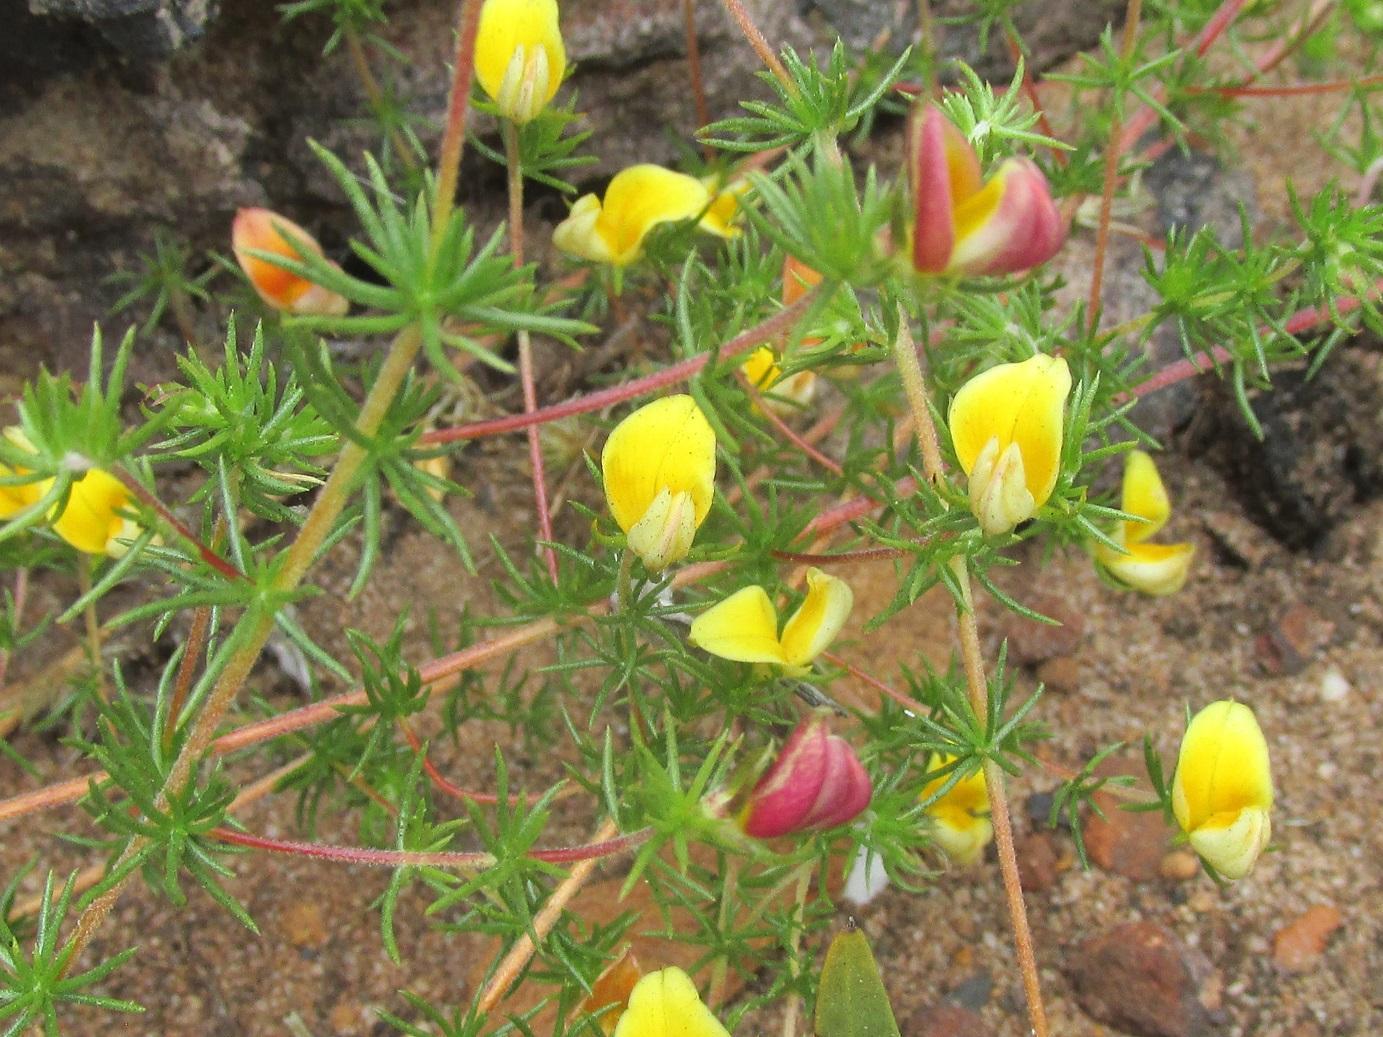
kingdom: Plantae
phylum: Tracheophyta
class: Magnoliopsida
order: Fabales
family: Fabaceae
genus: Aspalathus
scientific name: Aspalathus retroflexa
